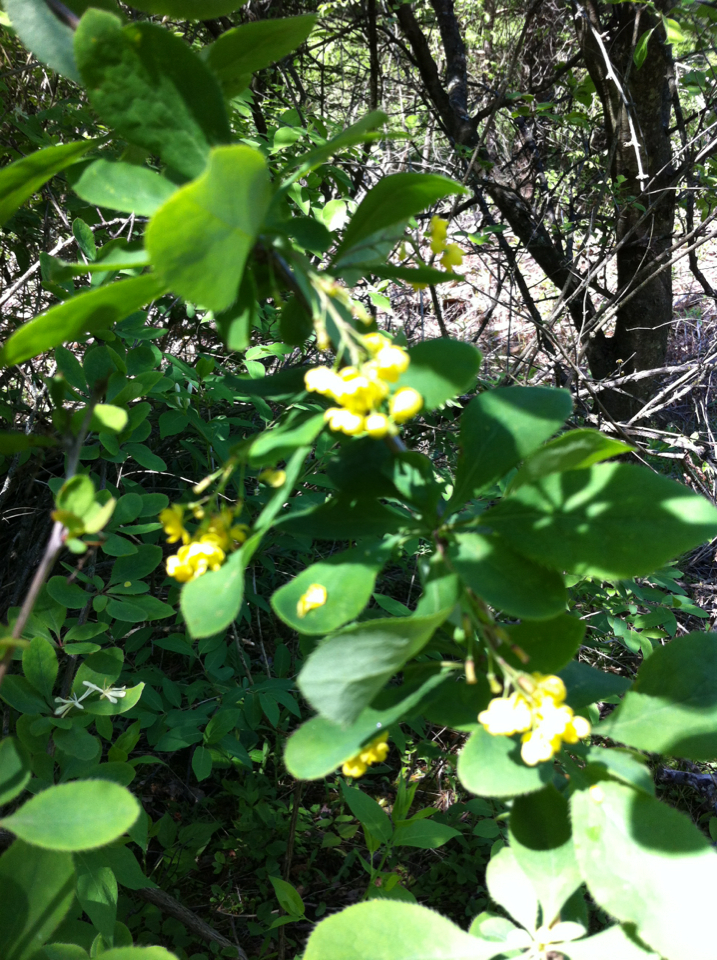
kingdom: Plantae
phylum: Tracheophyta
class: Magnoliopsida
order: Ranunculales
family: Berberidaceae
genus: Berberis
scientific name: Berberis thunbergii
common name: Japanese barberry
